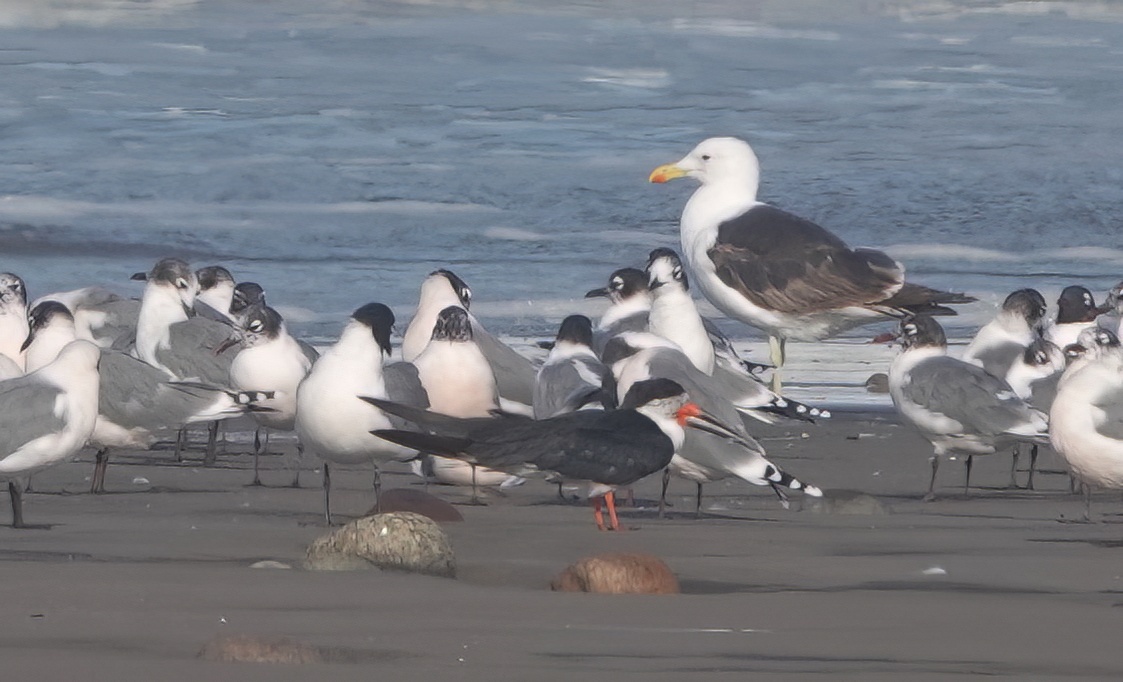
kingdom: Animalia
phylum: Chordata
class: Aves
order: Charadriiformes
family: Laridae
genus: Rynchops
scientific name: Rynchops niger
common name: Black skimmer
